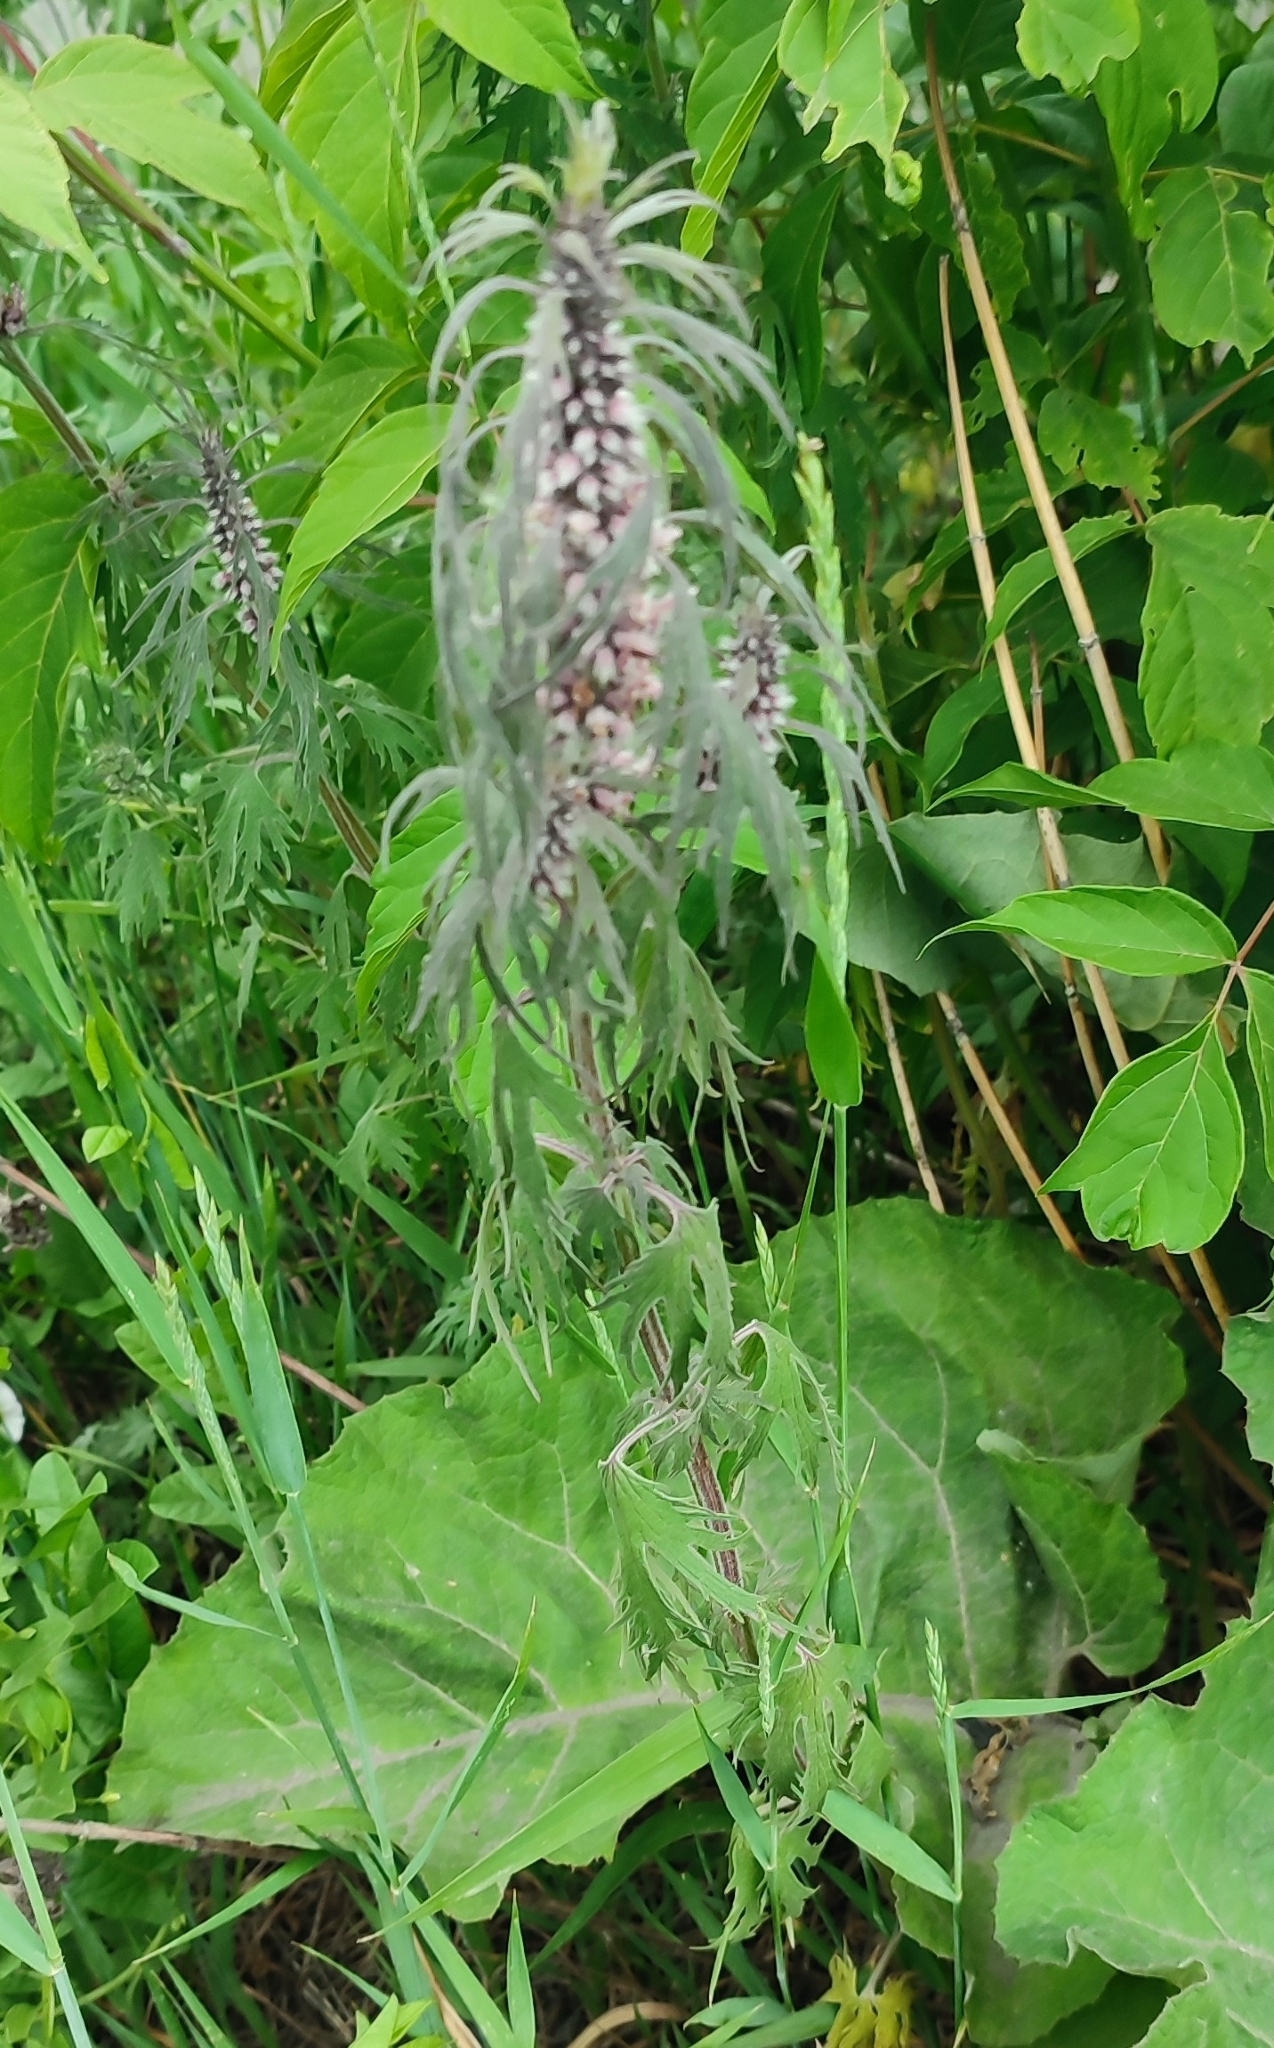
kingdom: Plantae
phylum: Tracheophyta
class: Magnoliopsida
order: Lamiales
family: Lamiaceae
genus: Leonurus
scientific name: Leonurus glaucescens
